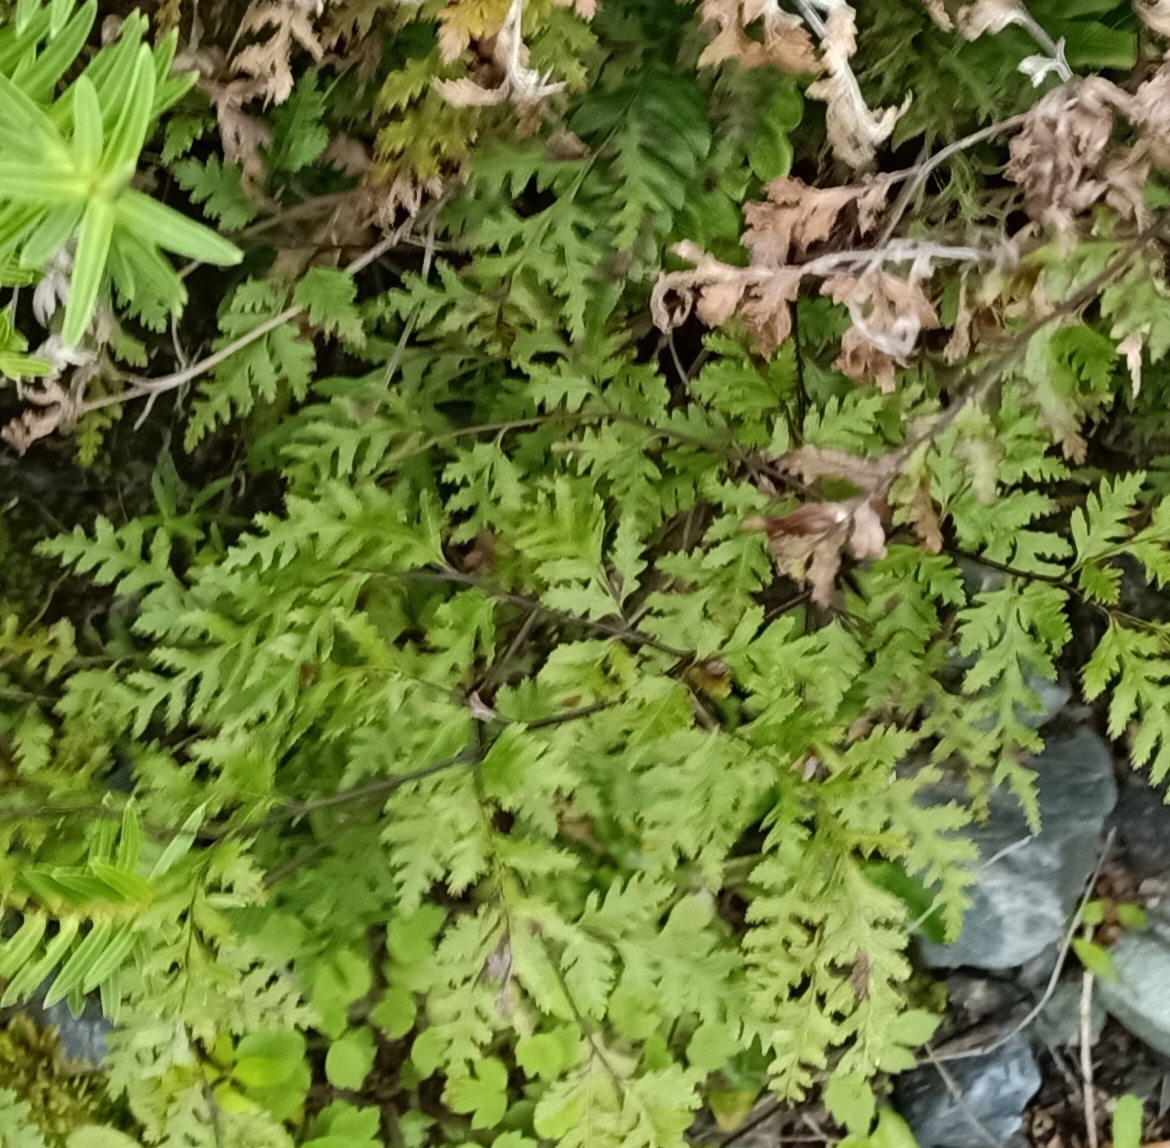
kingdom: Plantae
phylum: Tracheophyta
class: Polypodiopsida
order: Polypodiales
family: Pteridaceae
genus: Pteris
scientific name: Pteris macilenta
